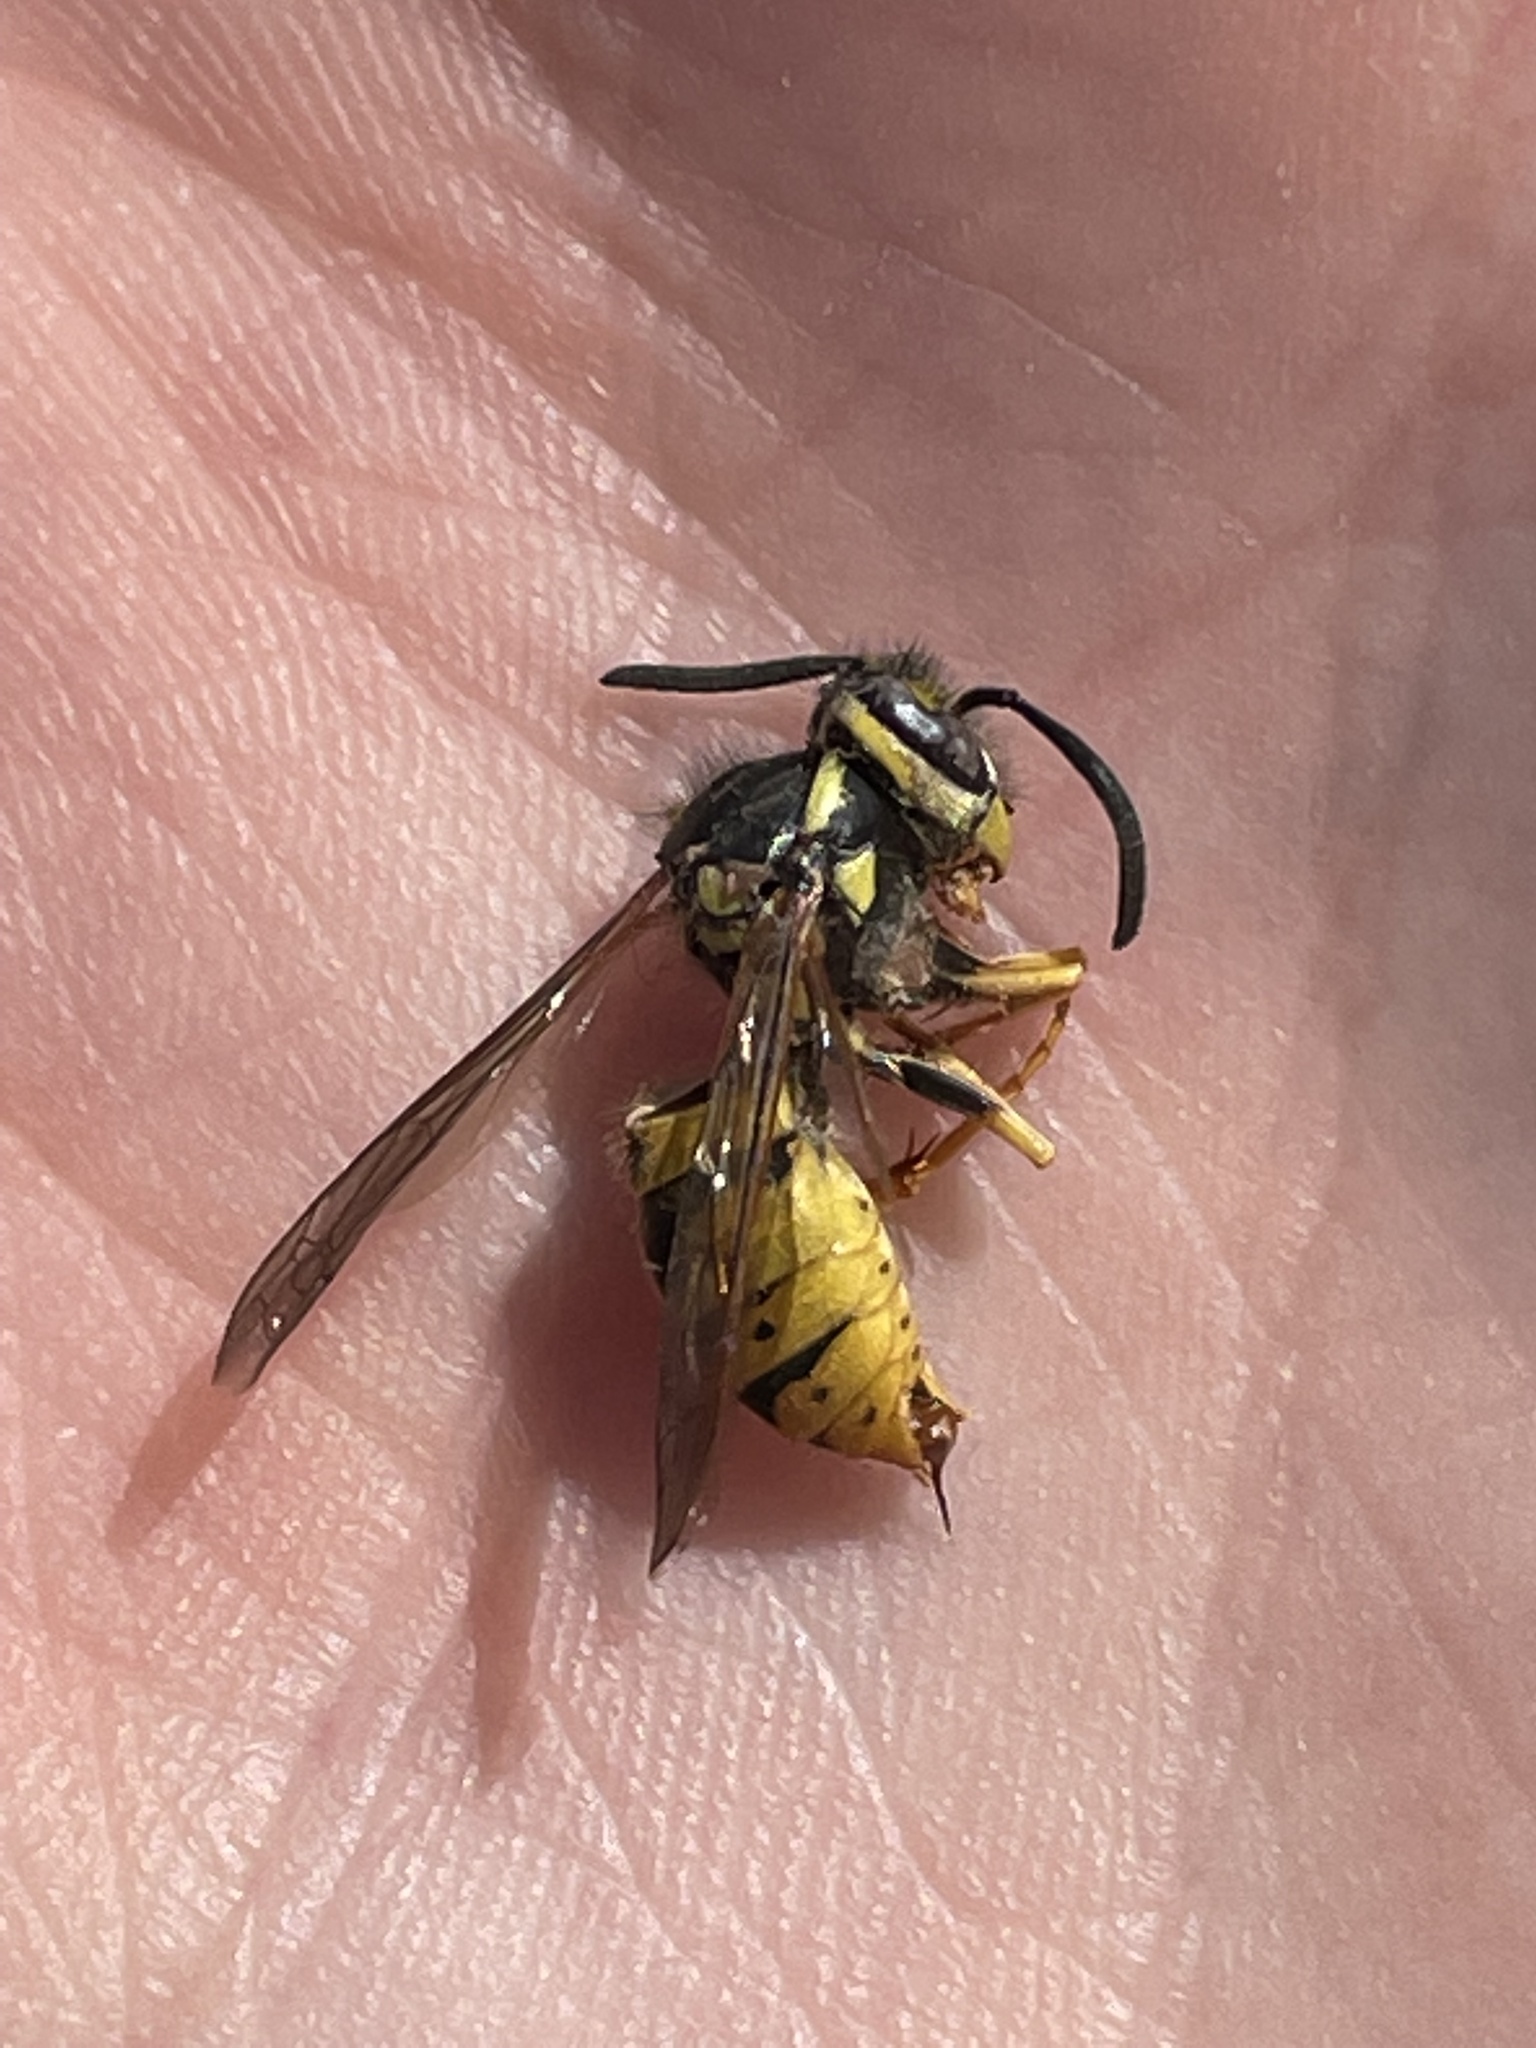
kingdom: Animalia
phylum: Arthropoda
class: Insecta
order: Hymenoptera
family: Vespidae
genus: Vespula
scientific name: Vespula germanica
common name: German wasp
